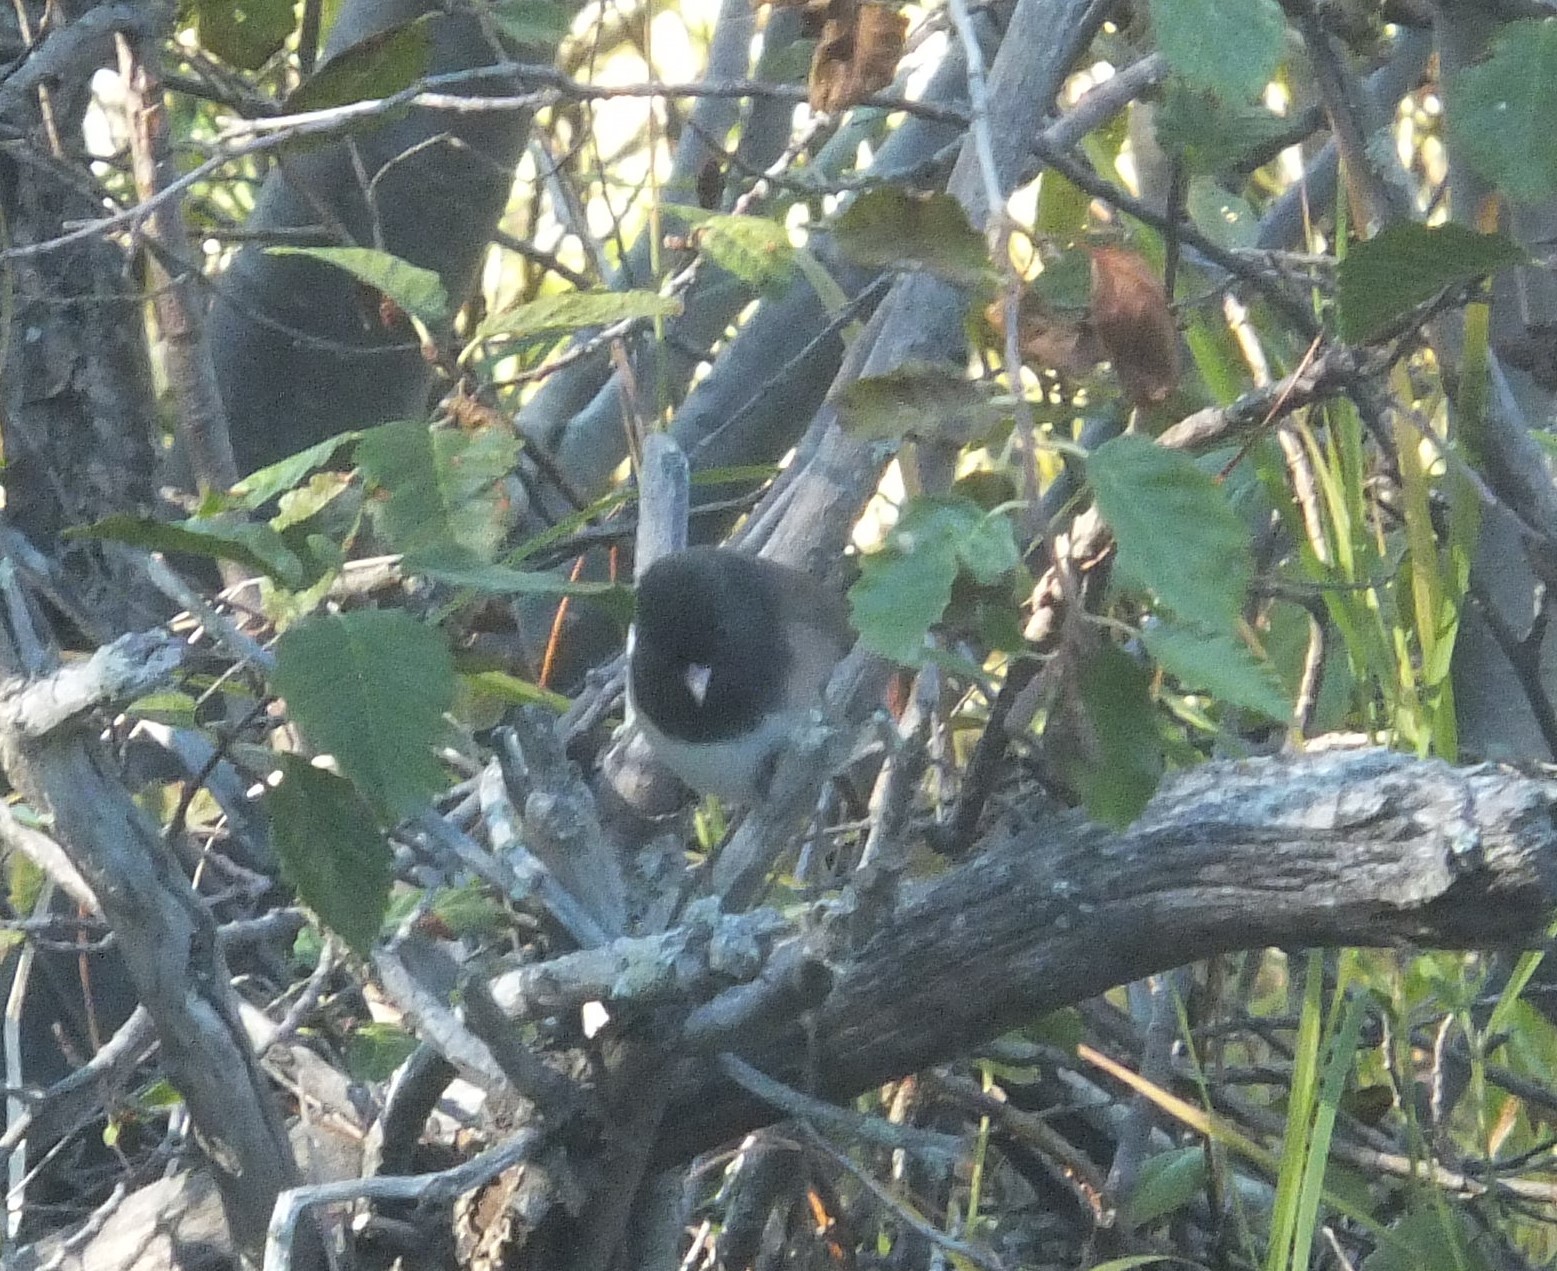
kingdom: Animalia
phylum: Chordata
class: Aves
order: Passeriformes
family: Passerellidae
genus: Junco
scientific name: Junco hyemalis
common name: Dark-eyed junco
